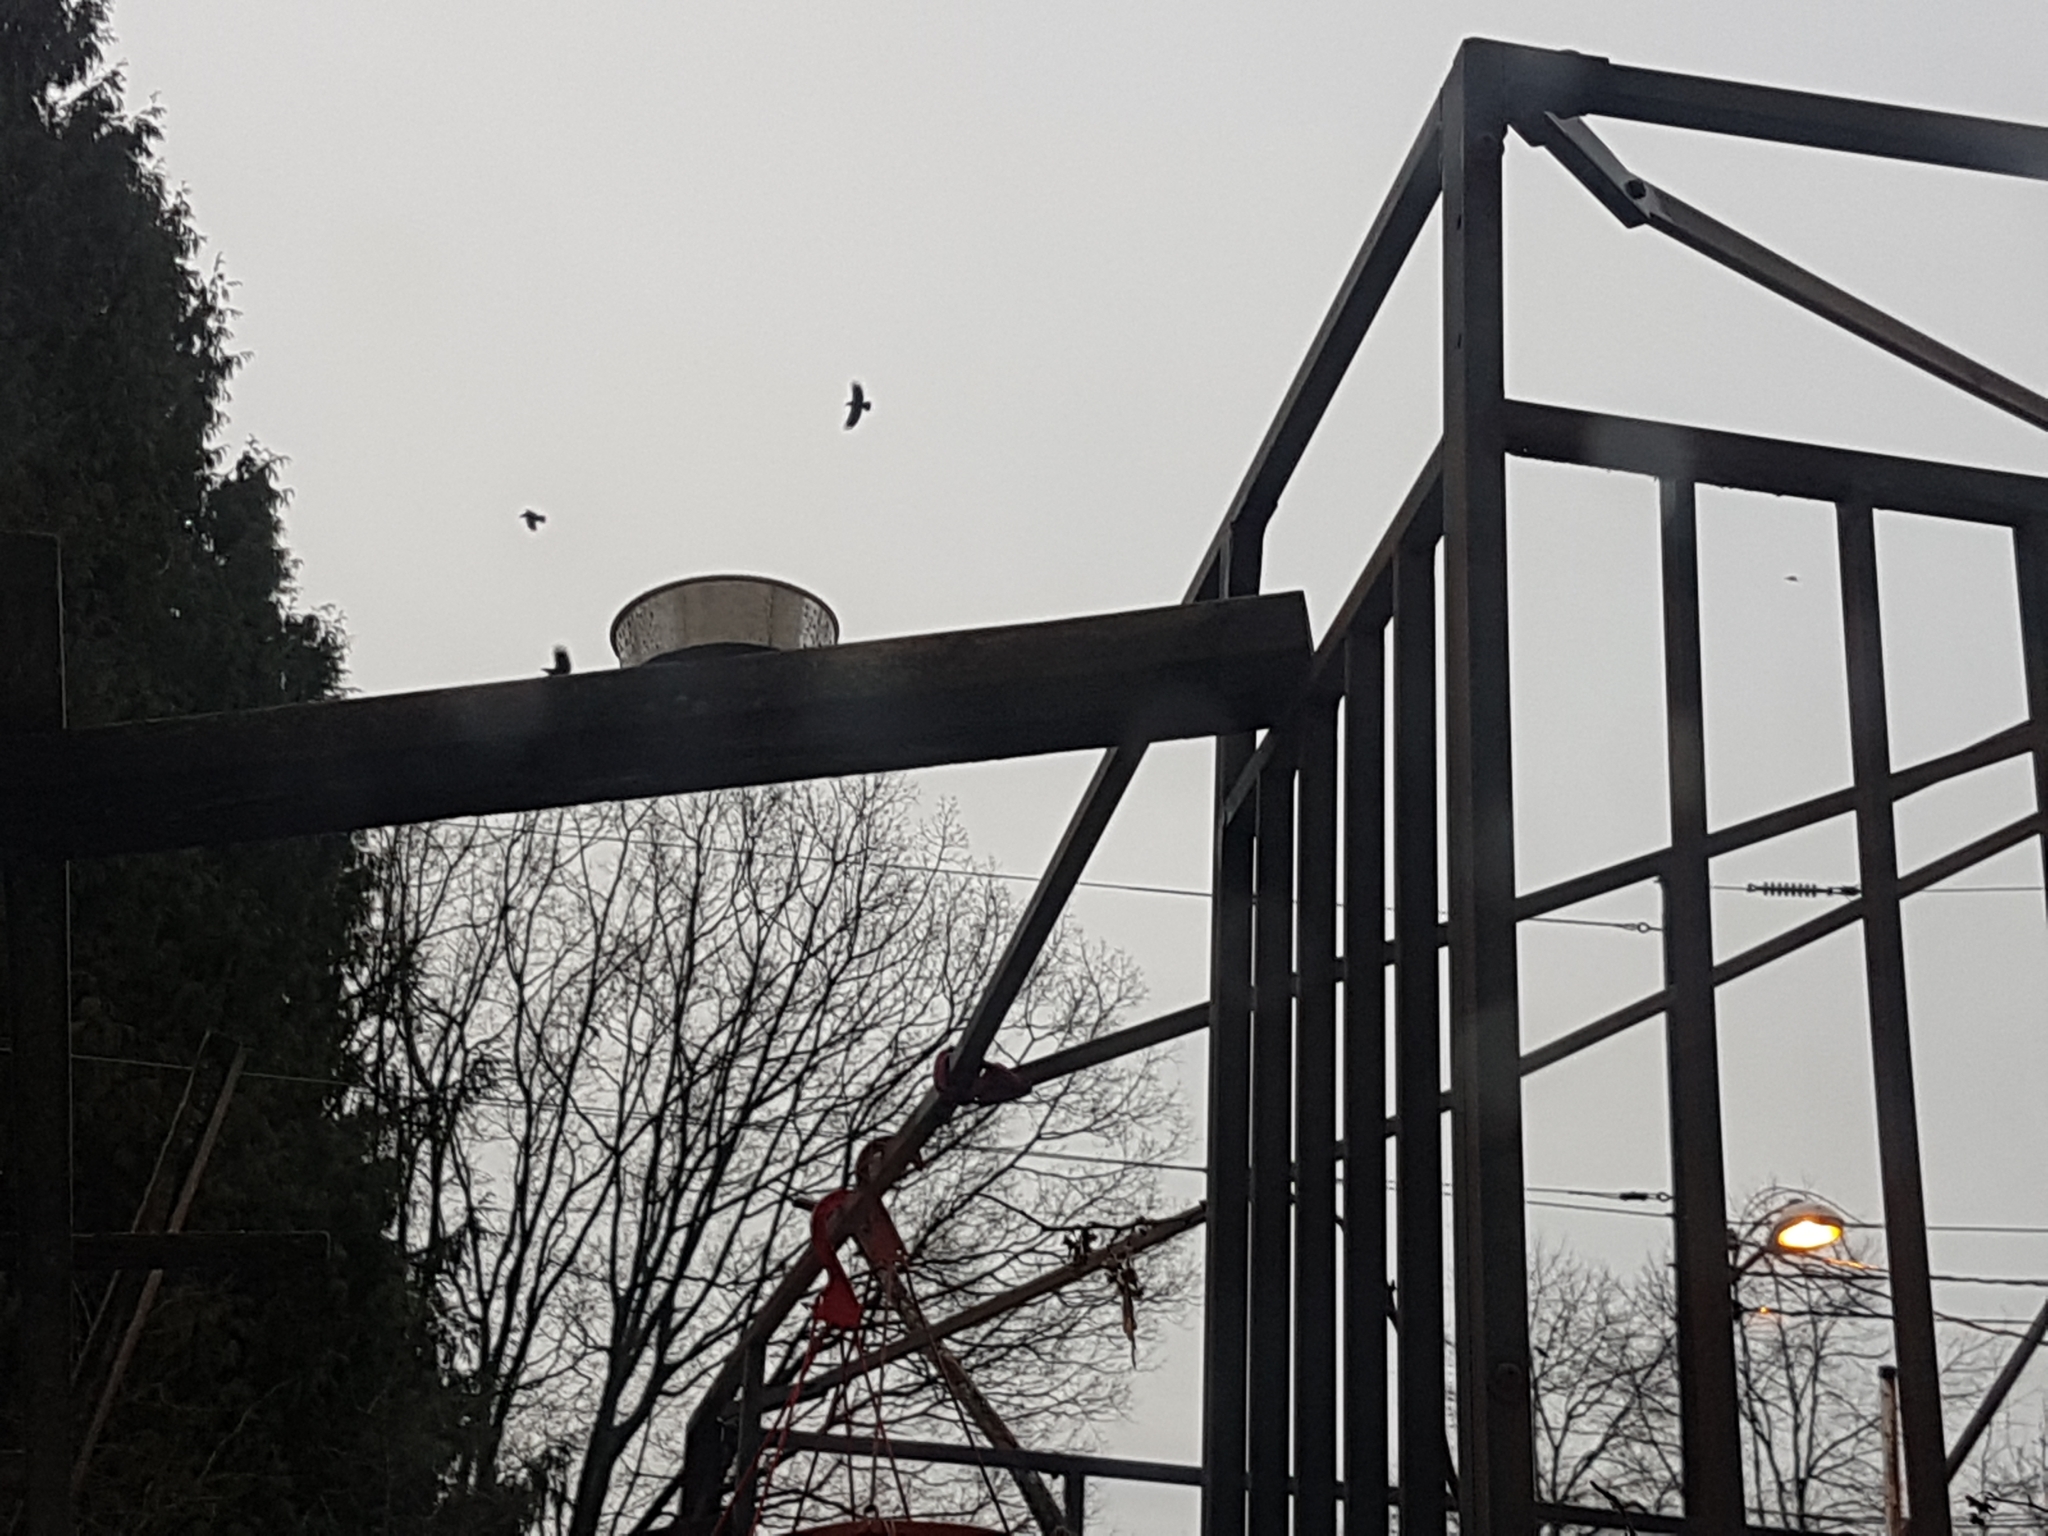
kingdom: Animalia
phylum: Chordata
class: Aves
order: Passeriformes
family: Corvidae
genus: Corvus
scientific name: Corvus brachyrhynchos
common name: American crow
